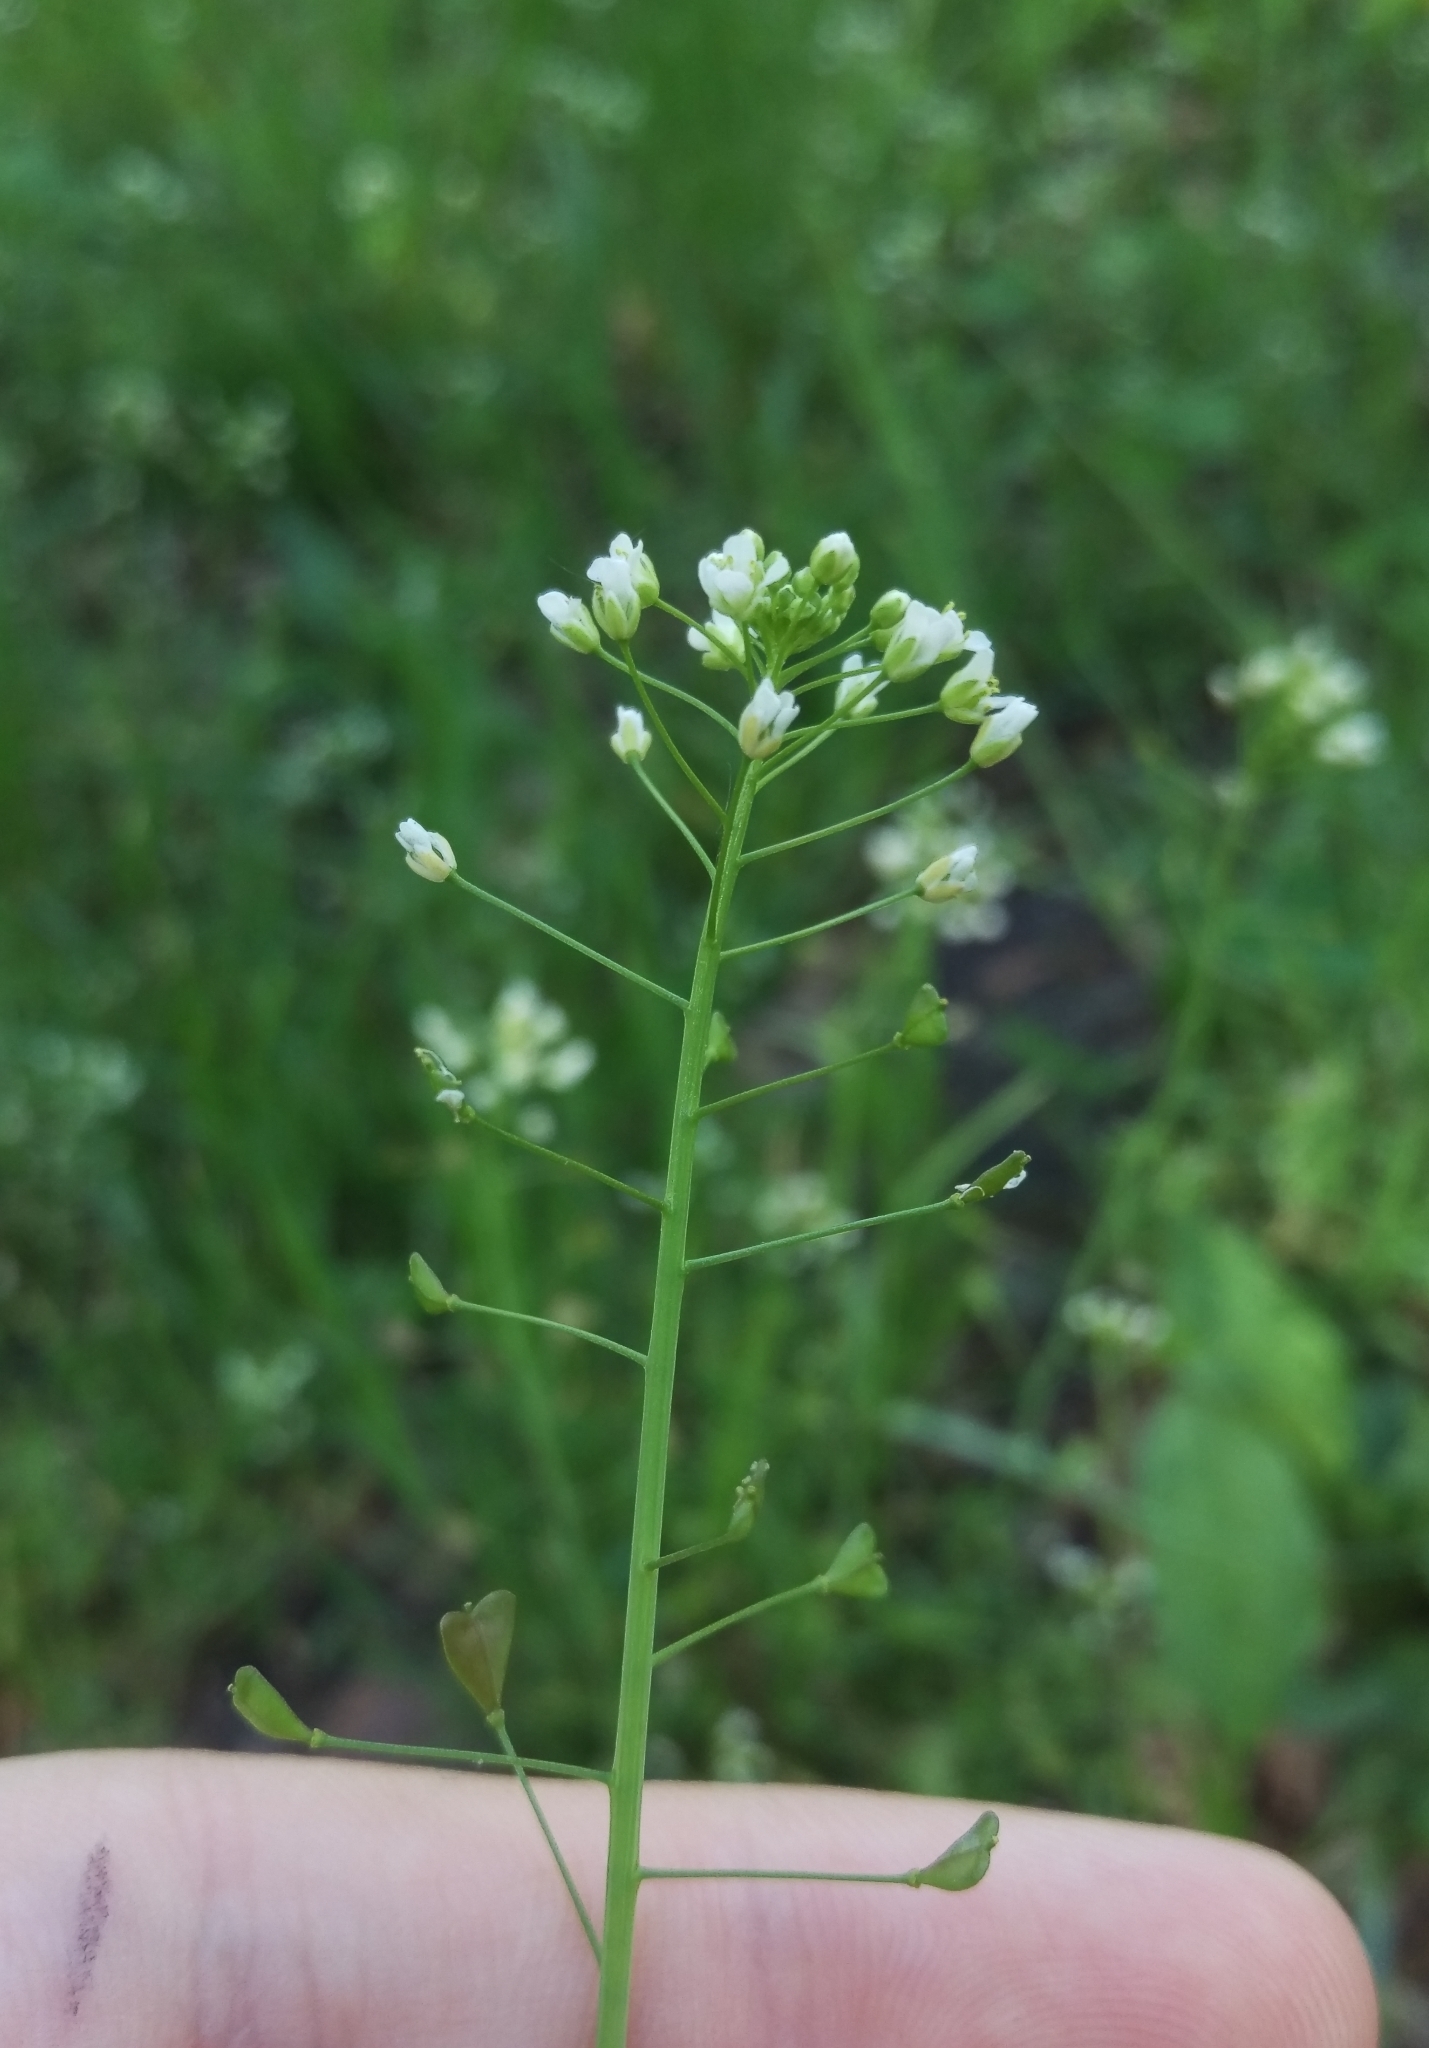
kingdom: Plantae
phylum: Tracheophyta
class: Magnoliopsida
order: Brassicales
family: Brassicaceae
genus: Capsella
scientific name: Capsella bursa-pastoris
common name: Shepherd's purse
